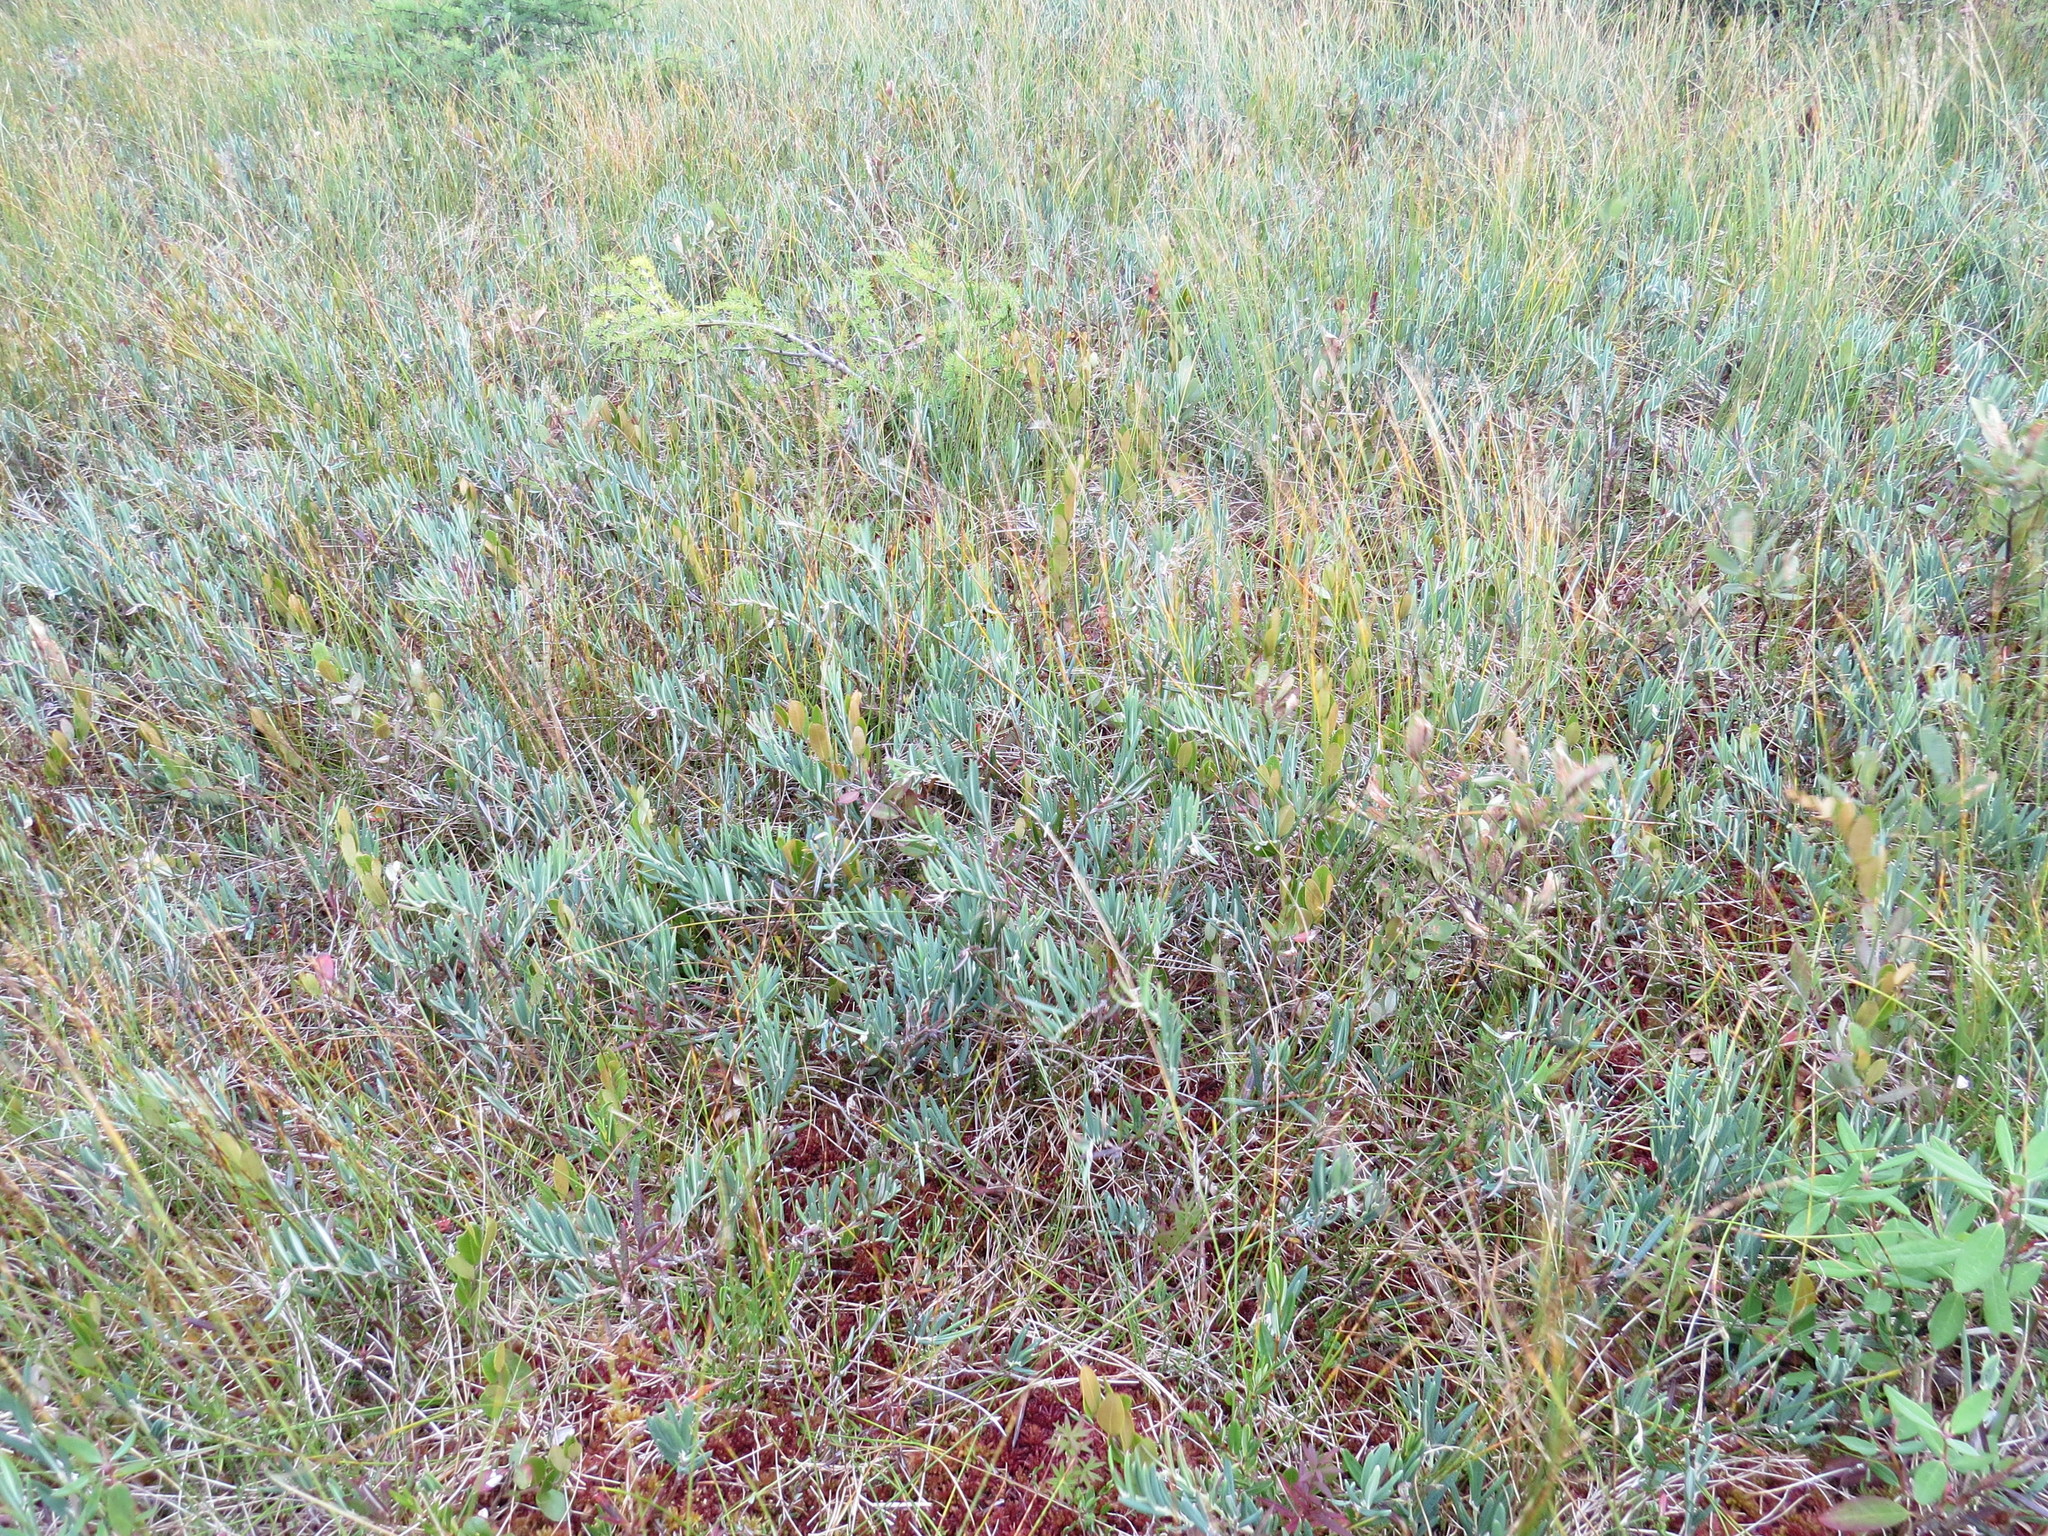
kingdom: Plantae
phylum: Tracheophyta
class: Magnoliopsida
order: Ericales
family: Ericaceae
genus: Andromeda
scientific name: Andromeda polifolia
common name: Bog-rosemary
